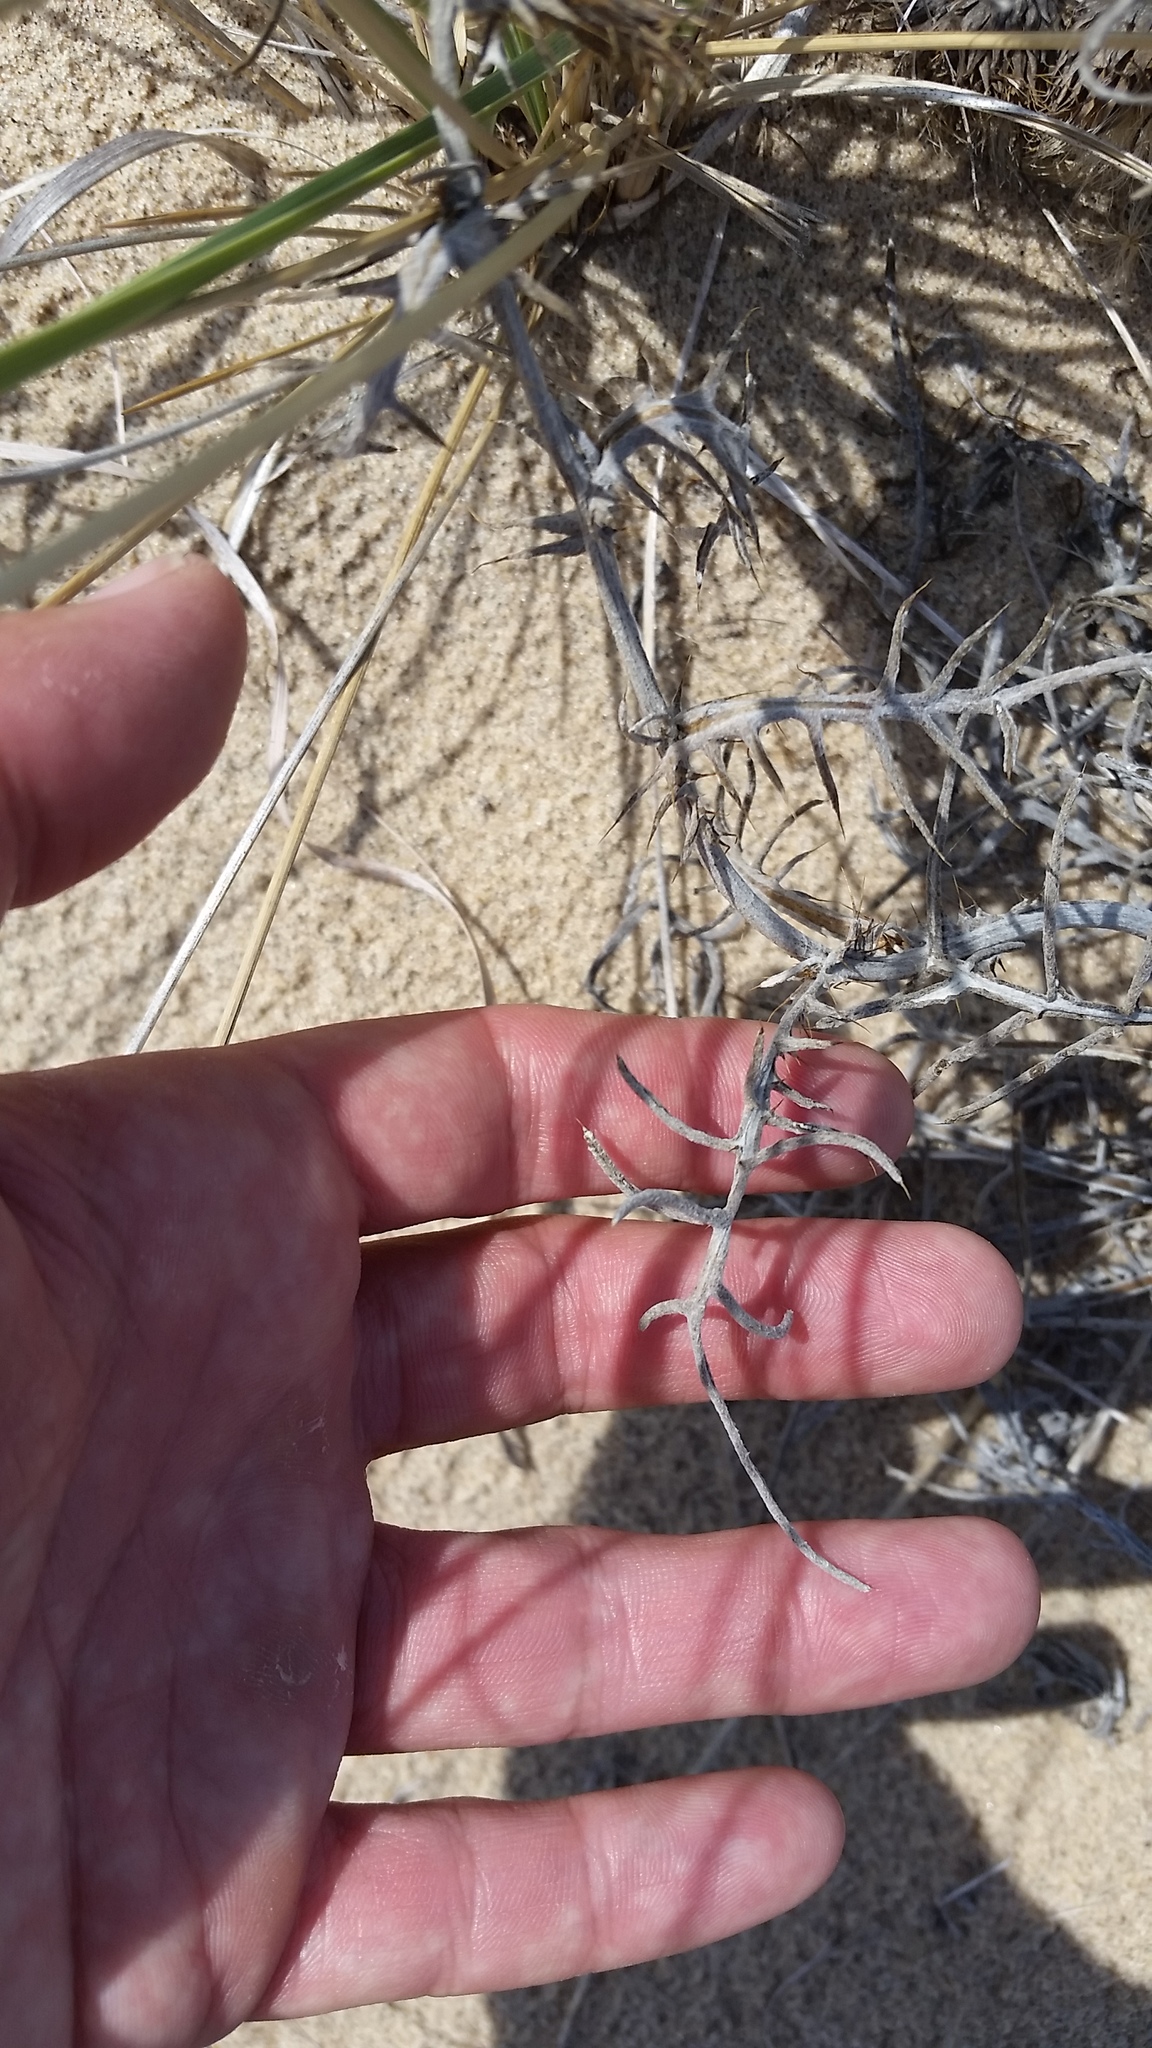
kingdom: Plantae
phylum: Tracheophyta
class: Magnoliopsida
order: Asterales
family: Asteraceae
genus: Cirsium
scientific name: Cirsium pitcheri
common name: Dune thistle
